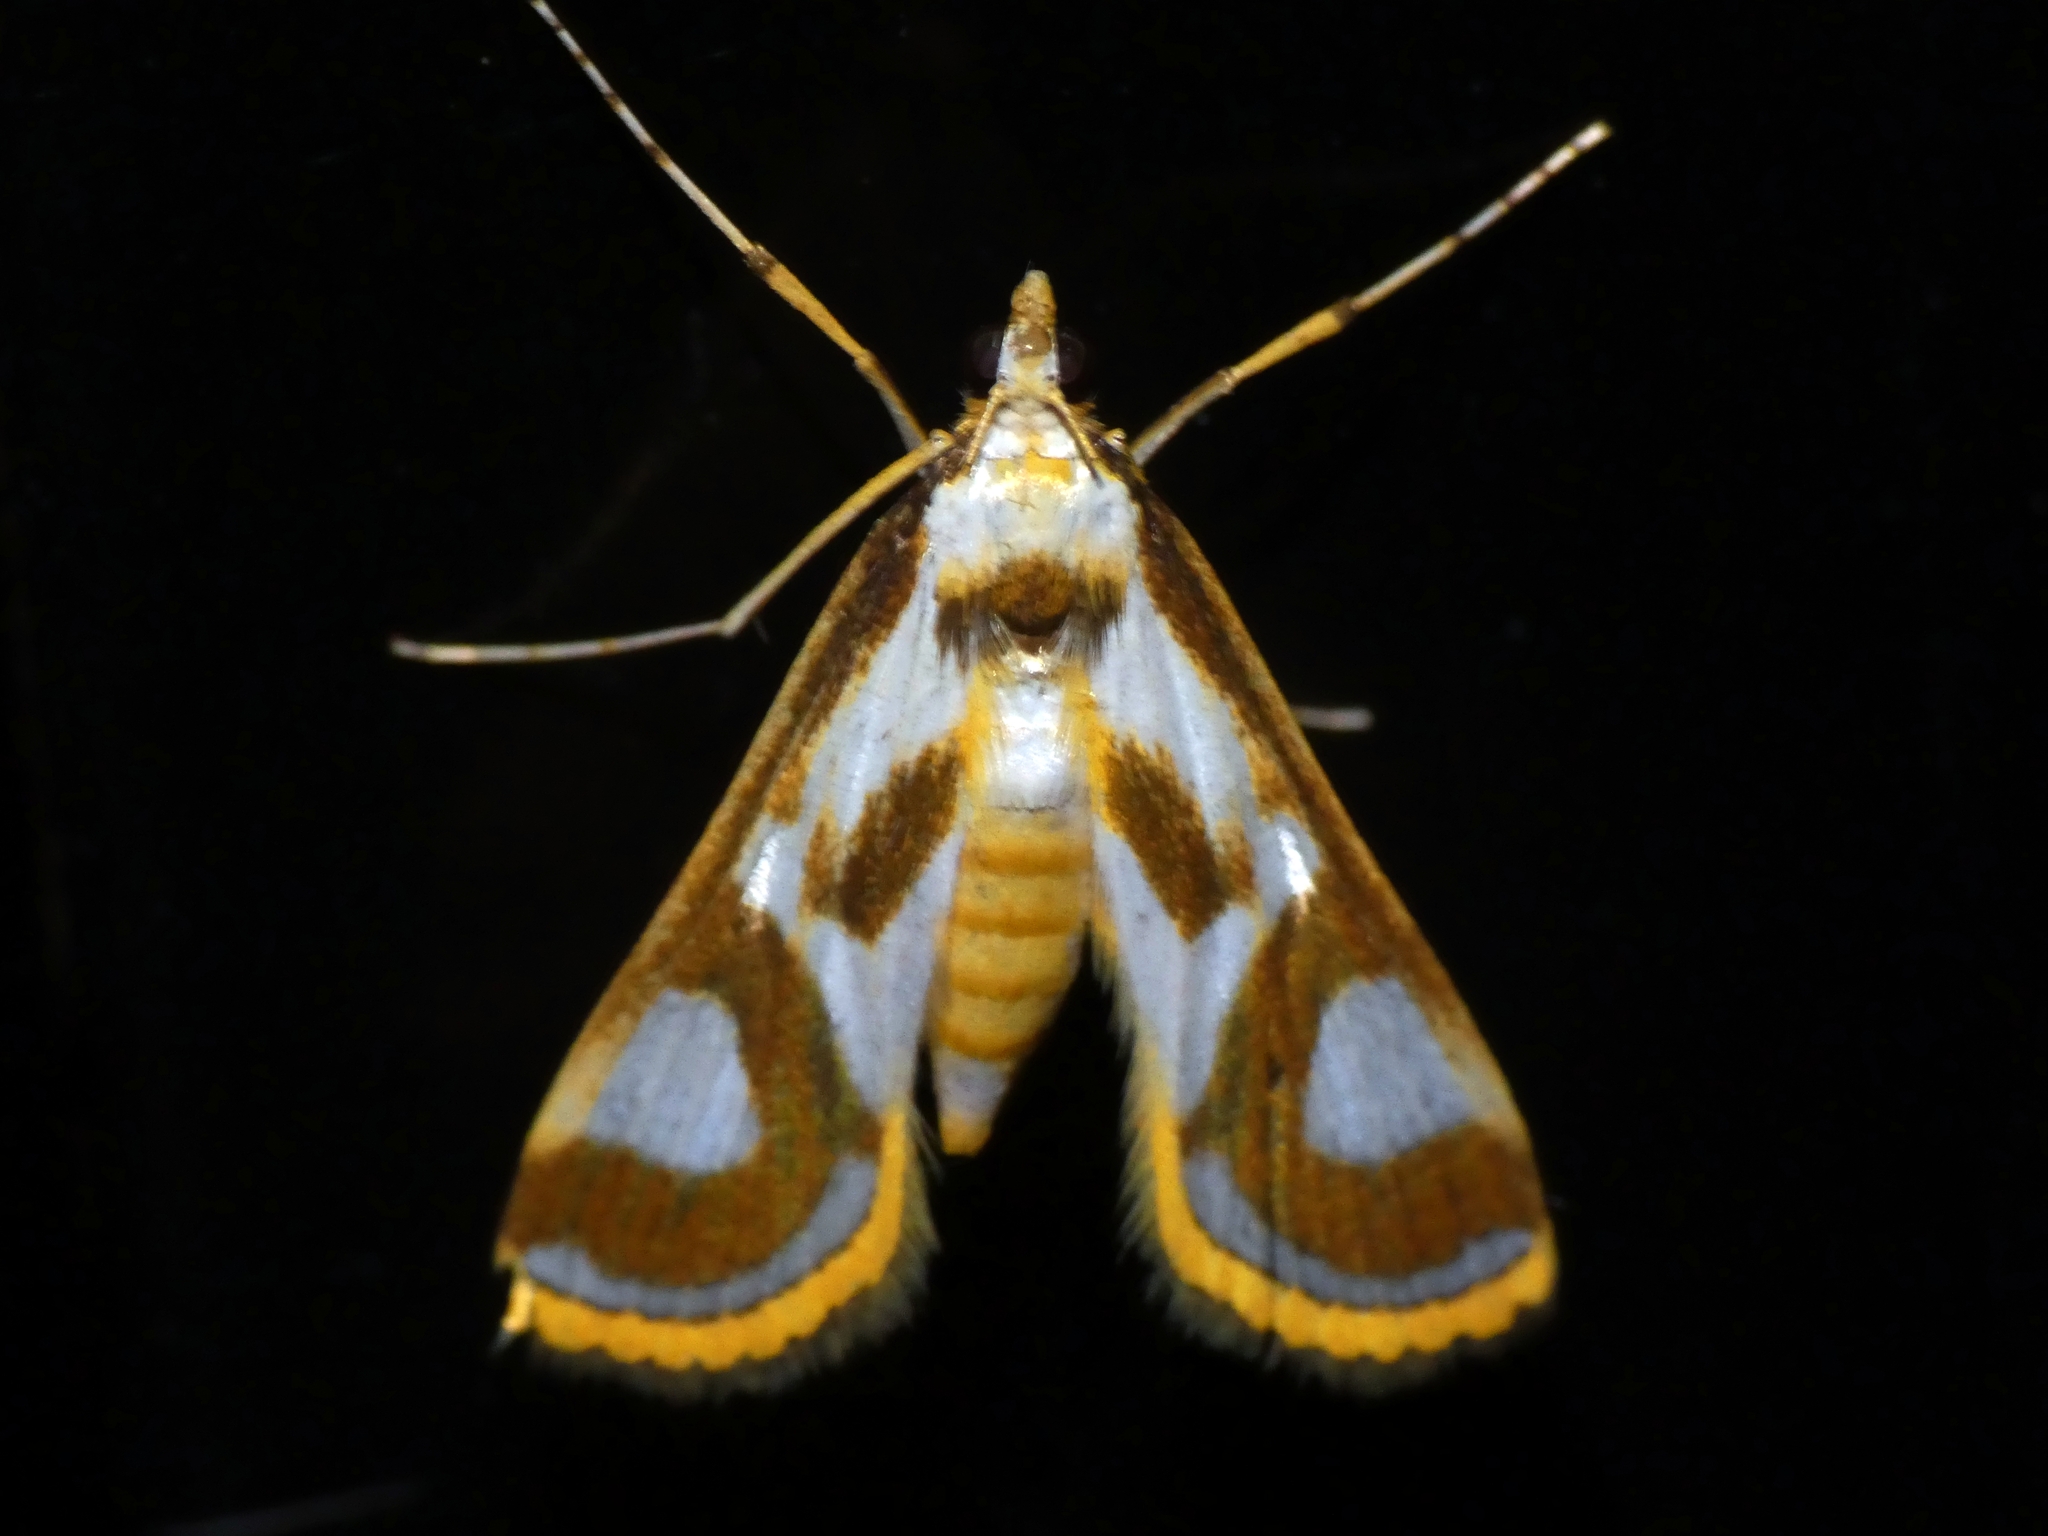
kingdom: Animalia
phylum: Arthropoda
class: Insecta
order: Lepidoptera
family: Crambidae
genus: Theila
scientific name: Theila siennata
